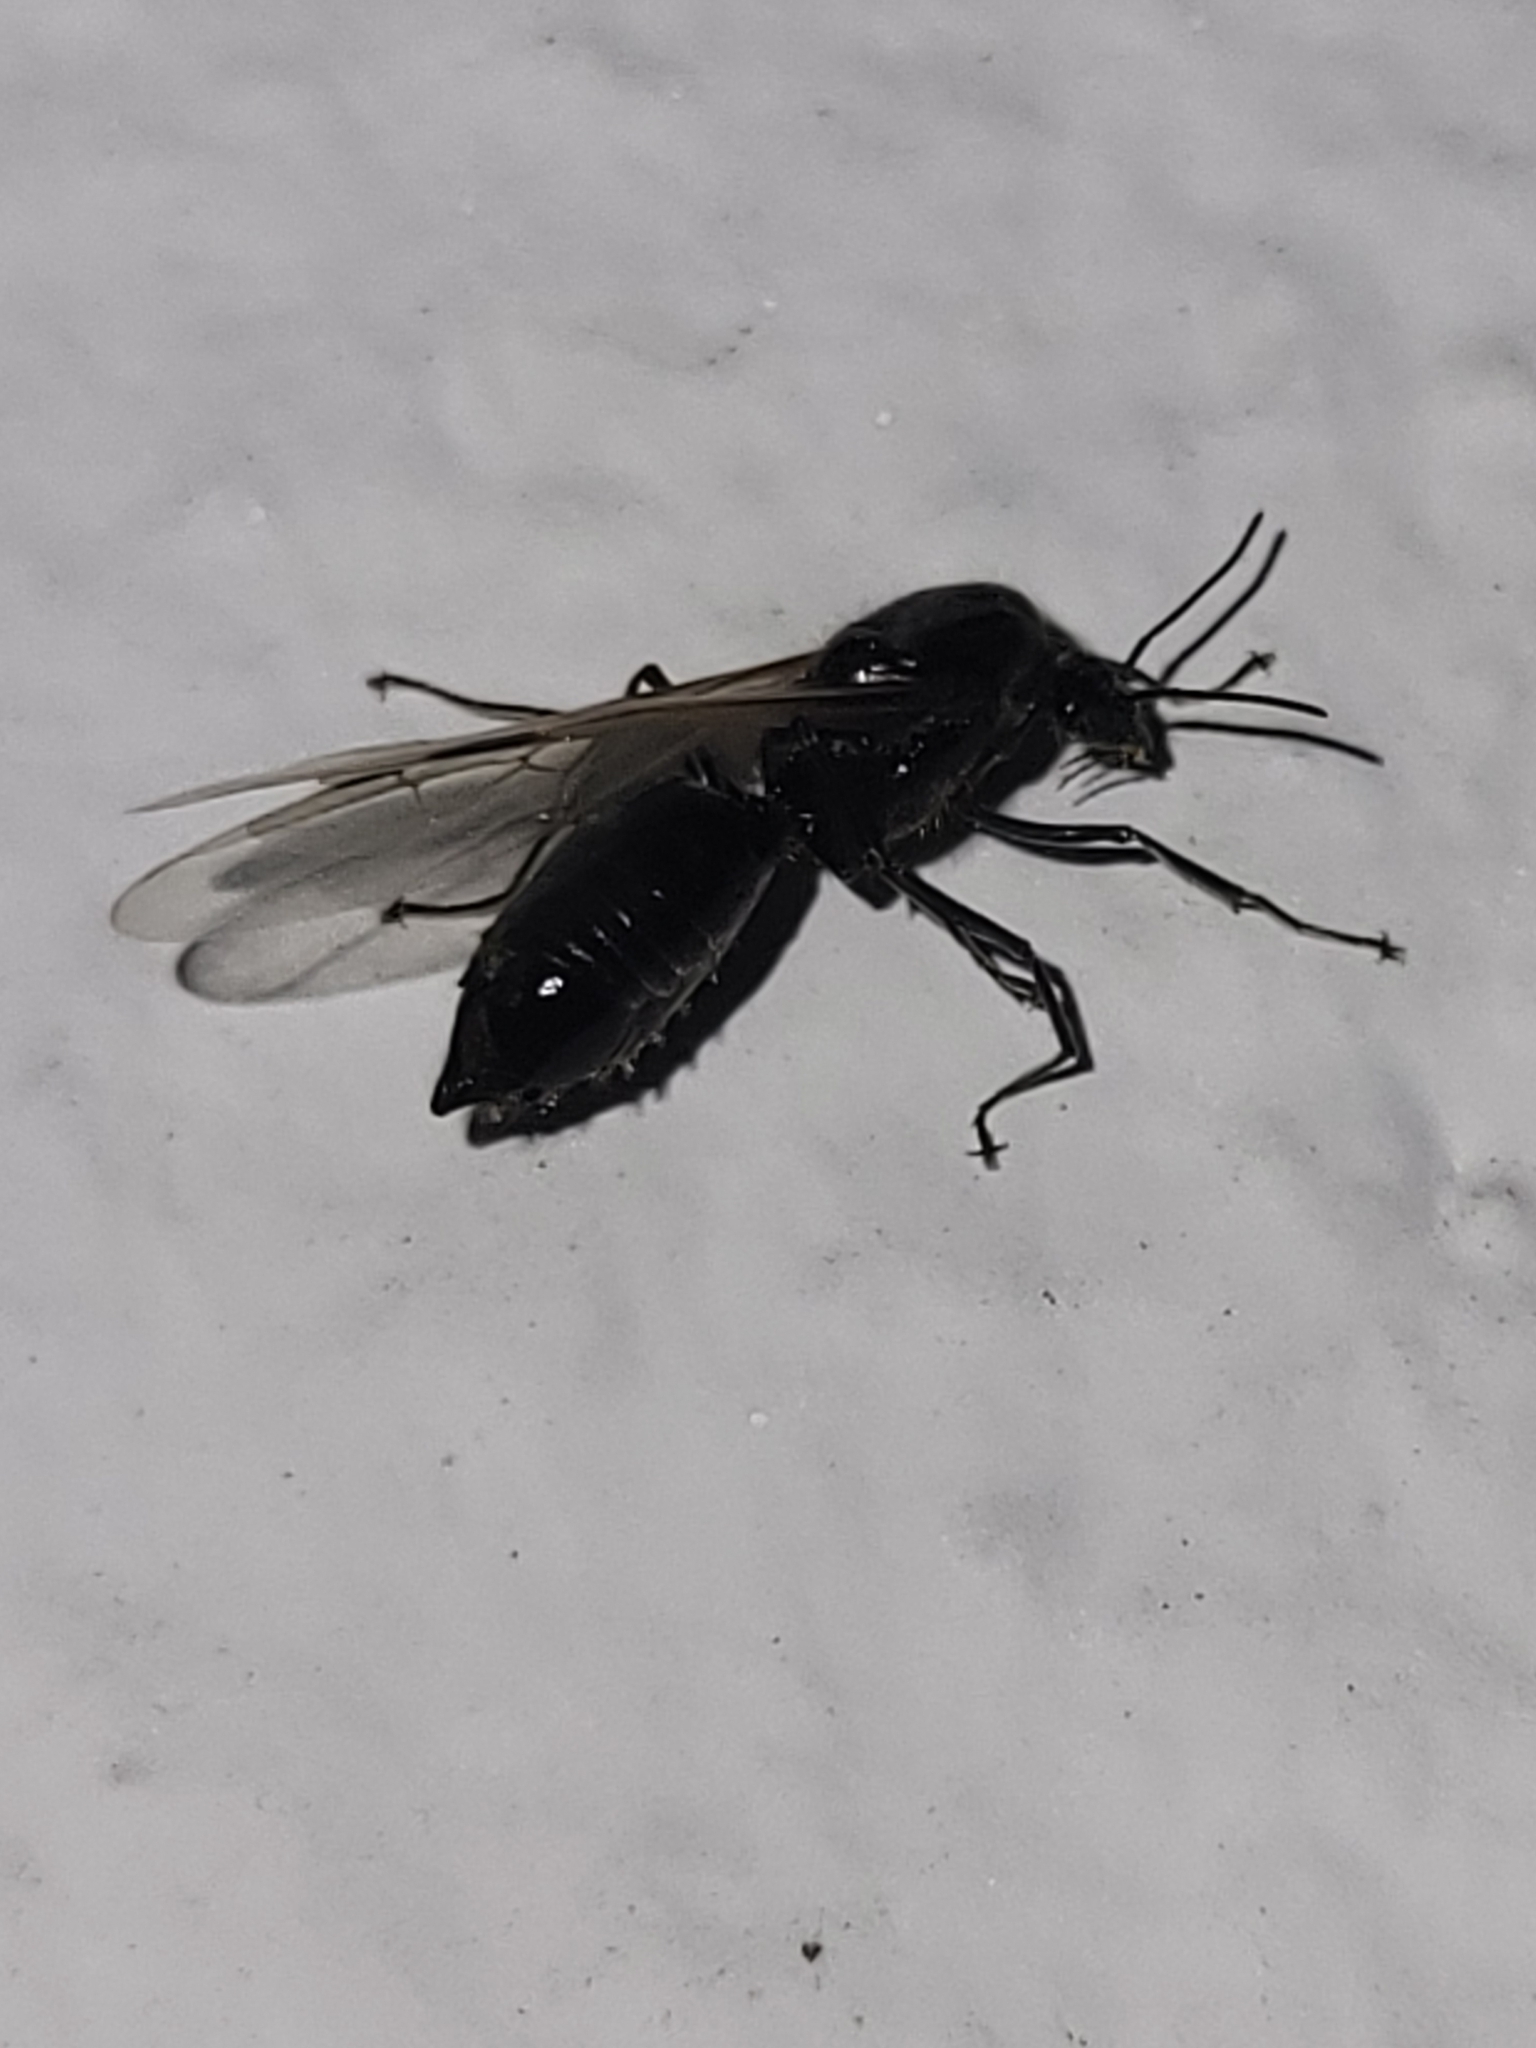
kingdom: Animalia
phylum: Arthropoda
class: Insecta
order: Hymenoptera
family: Formicidae
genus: Liometopum
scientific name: Liometopum microcephalum
